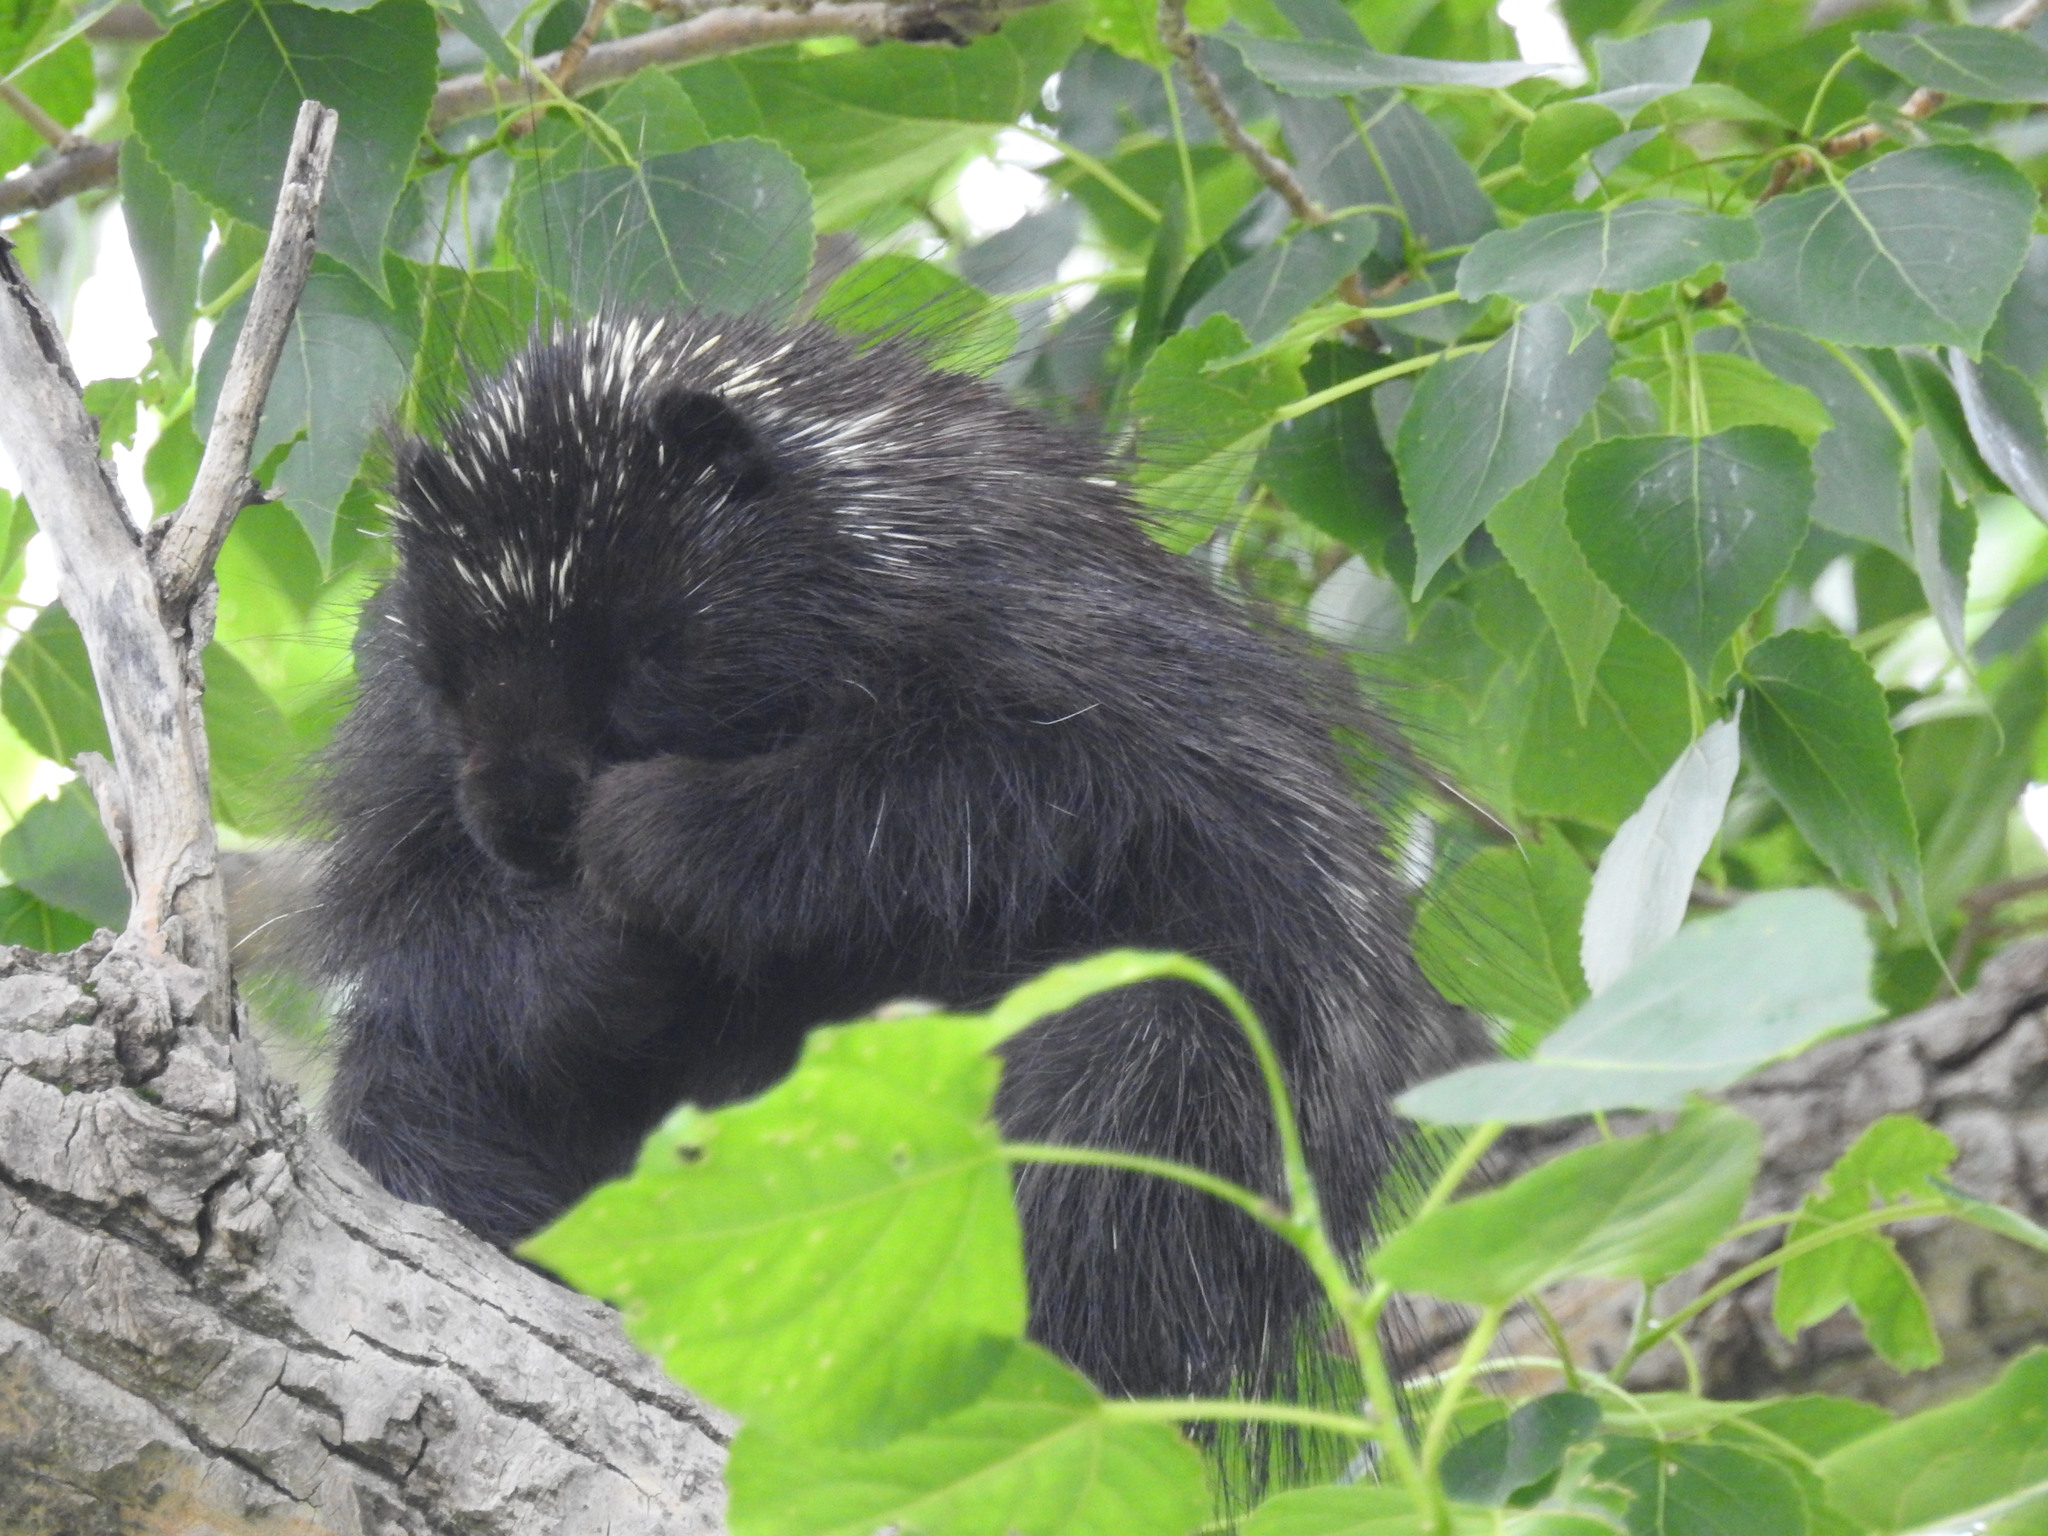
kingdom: Animalia
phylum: Chordata
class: Mammalia
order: Rodentia
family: Erethizontidae
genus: Erethizon
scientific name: Erethizon dorsatus
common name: North american porcupine
